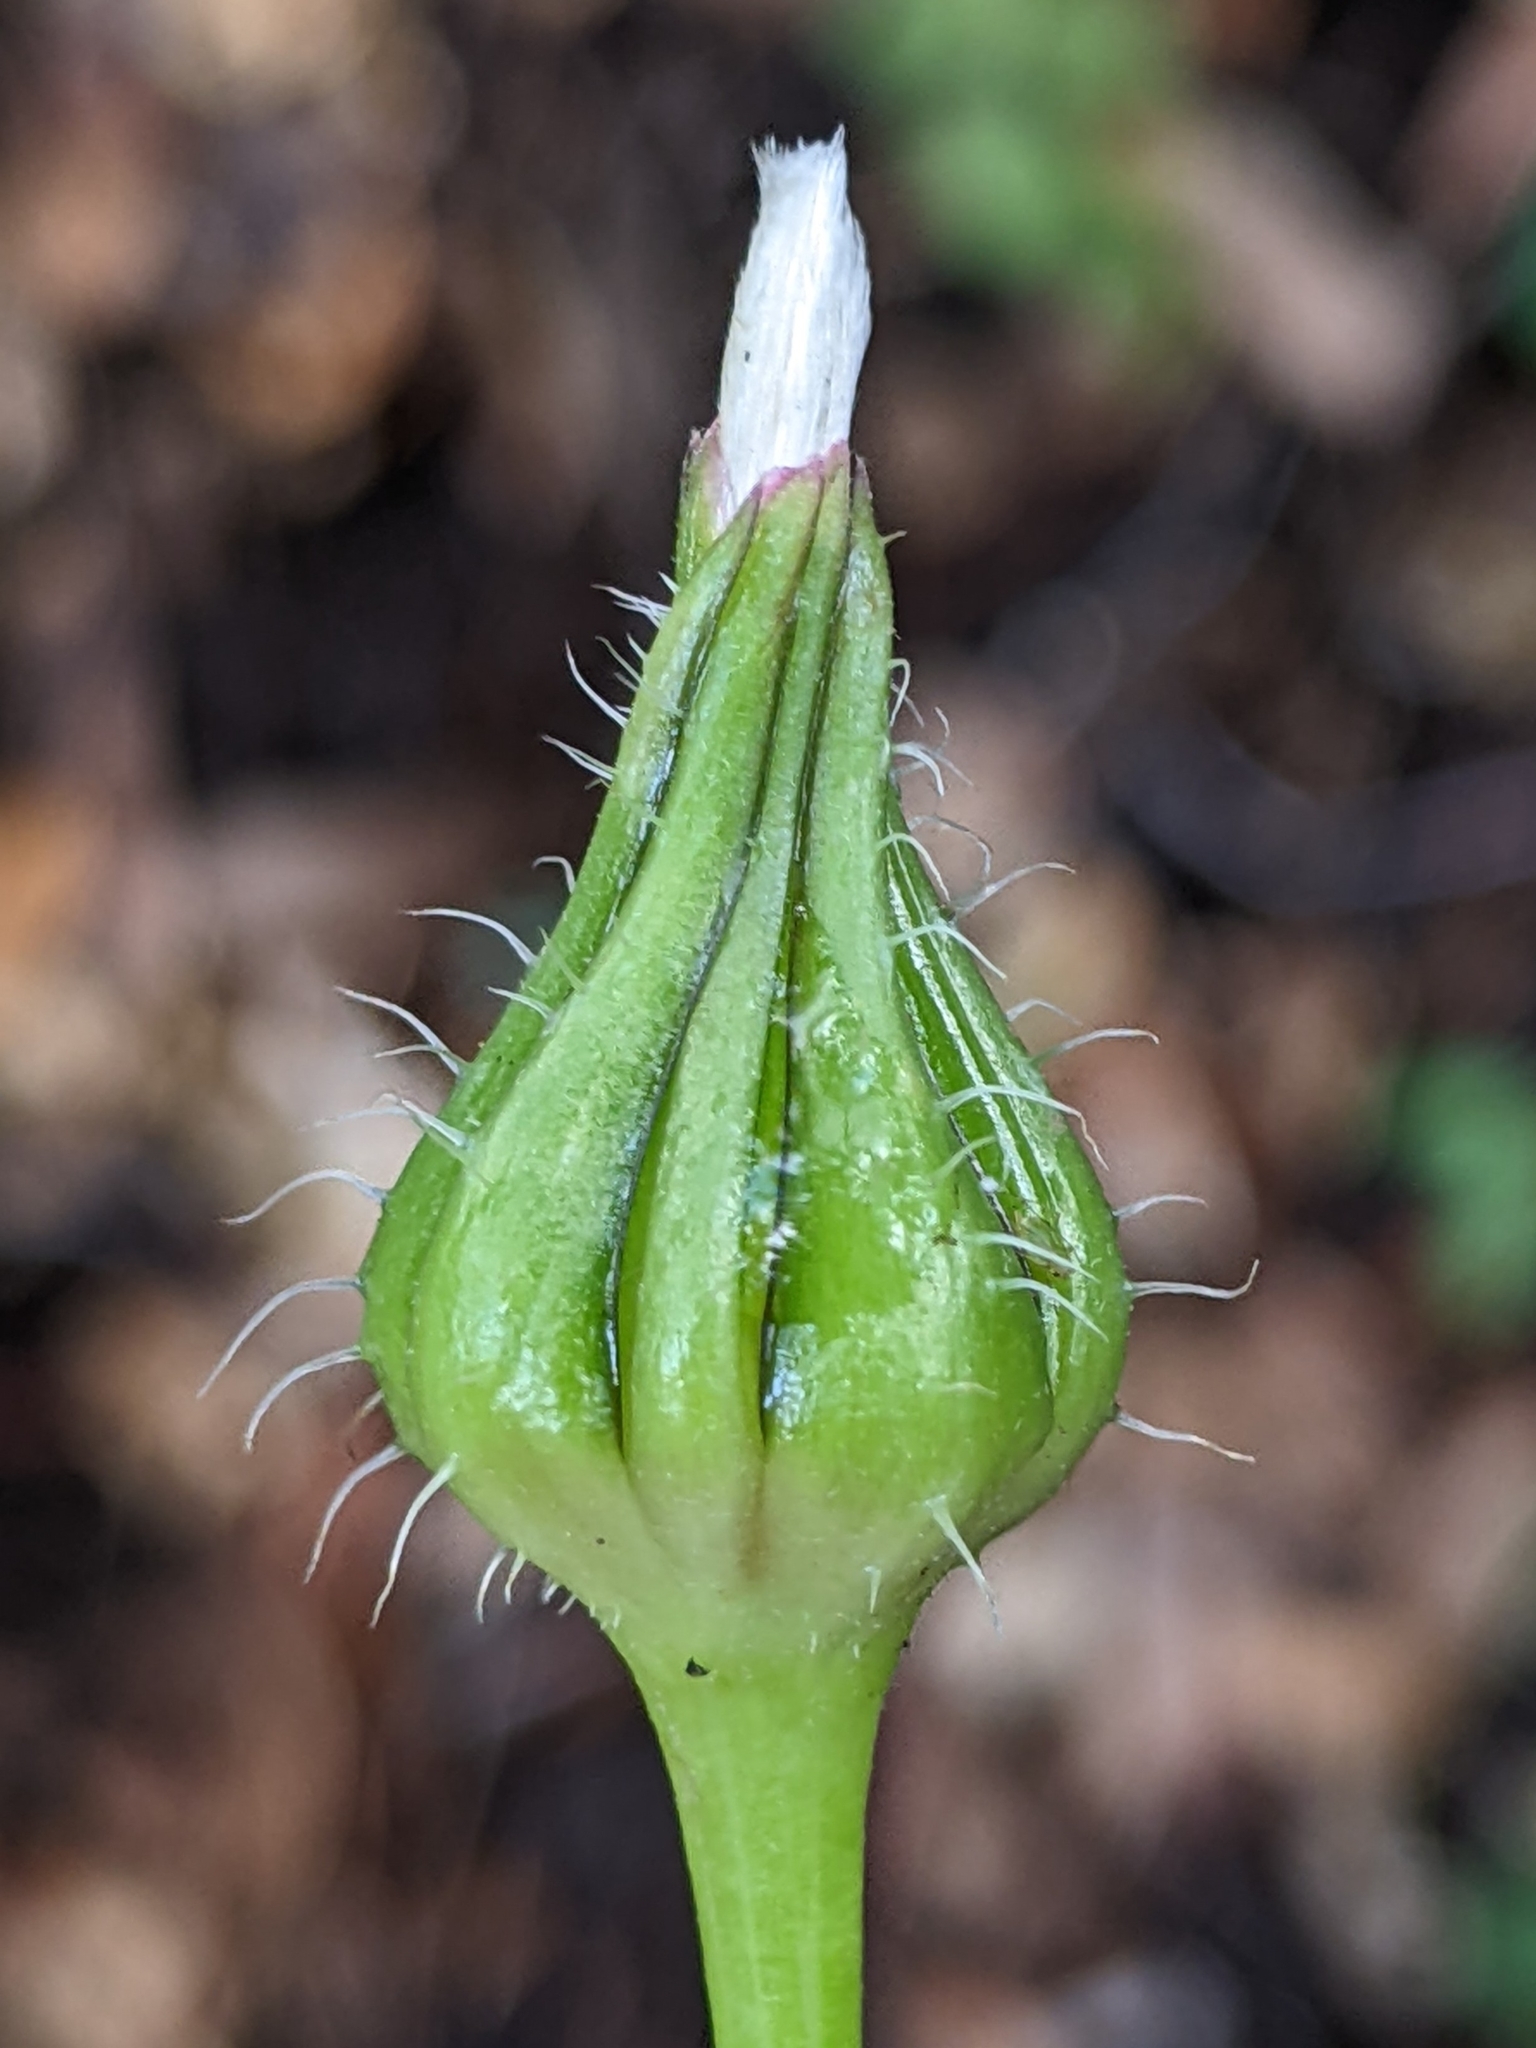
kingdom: Plantae
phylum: Tracheophyta
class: Magnoliopsida
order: Asterales
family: Asteraceae
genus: Urospermum
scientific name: Urospermum picroides
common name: False hawkbit
